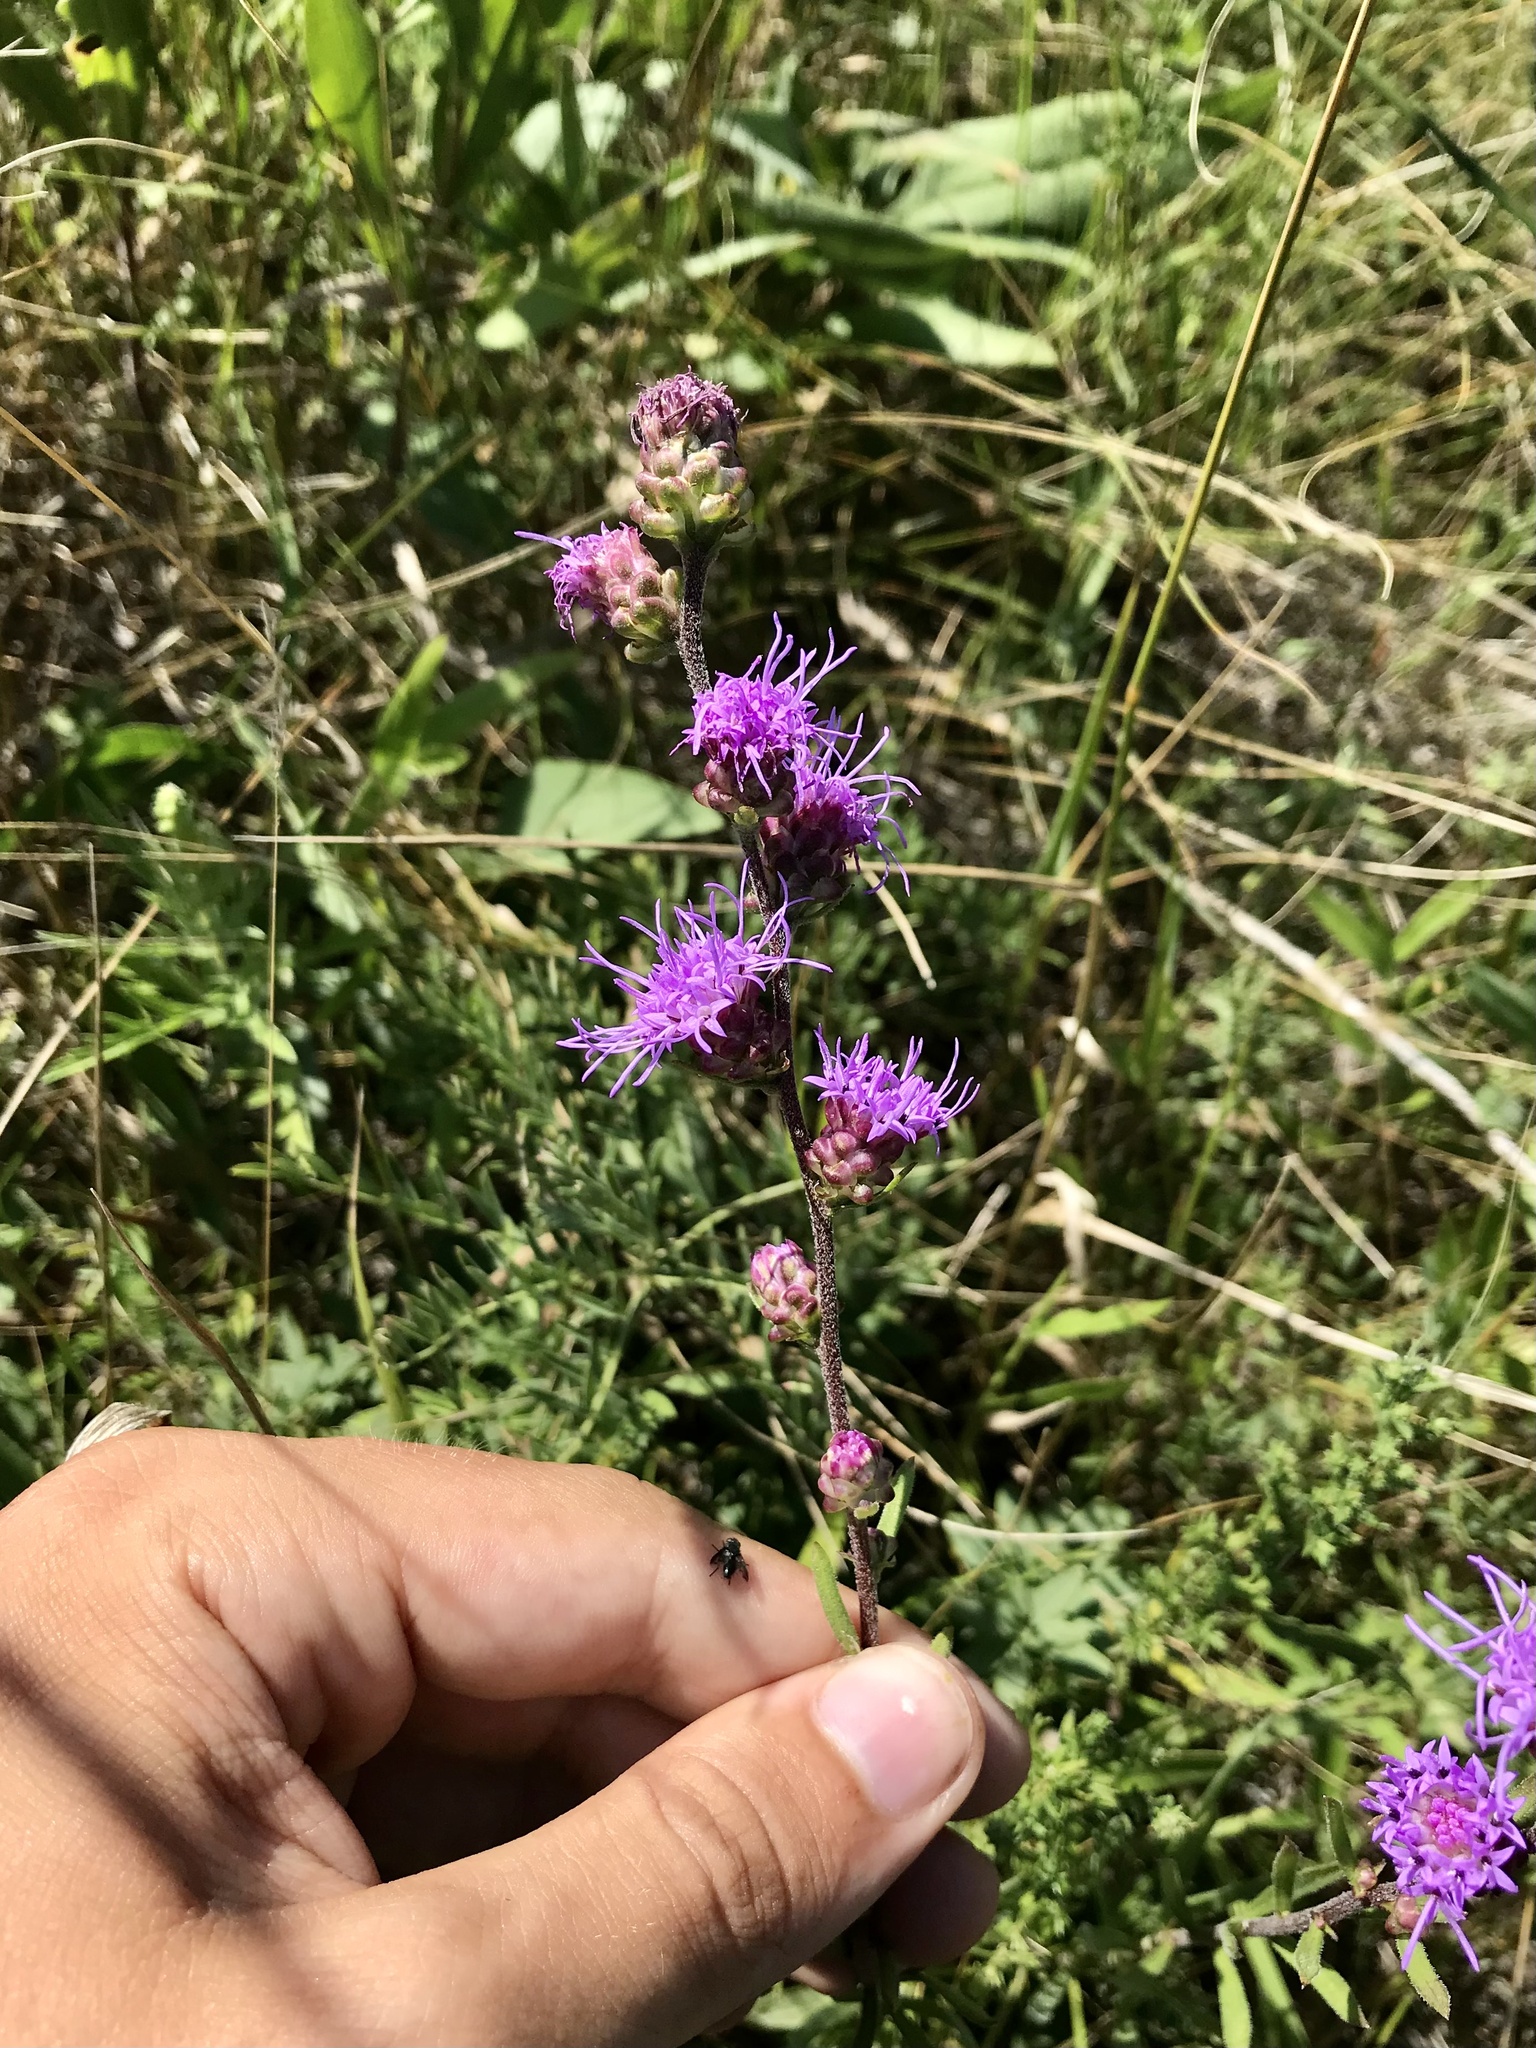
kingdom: Plantae
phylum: Tracheophyta
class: Magnoliopsida
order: Asterales
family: Asteraceae
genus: Liatris
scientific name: Liatris aspera
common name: Lacerate blazing-star
